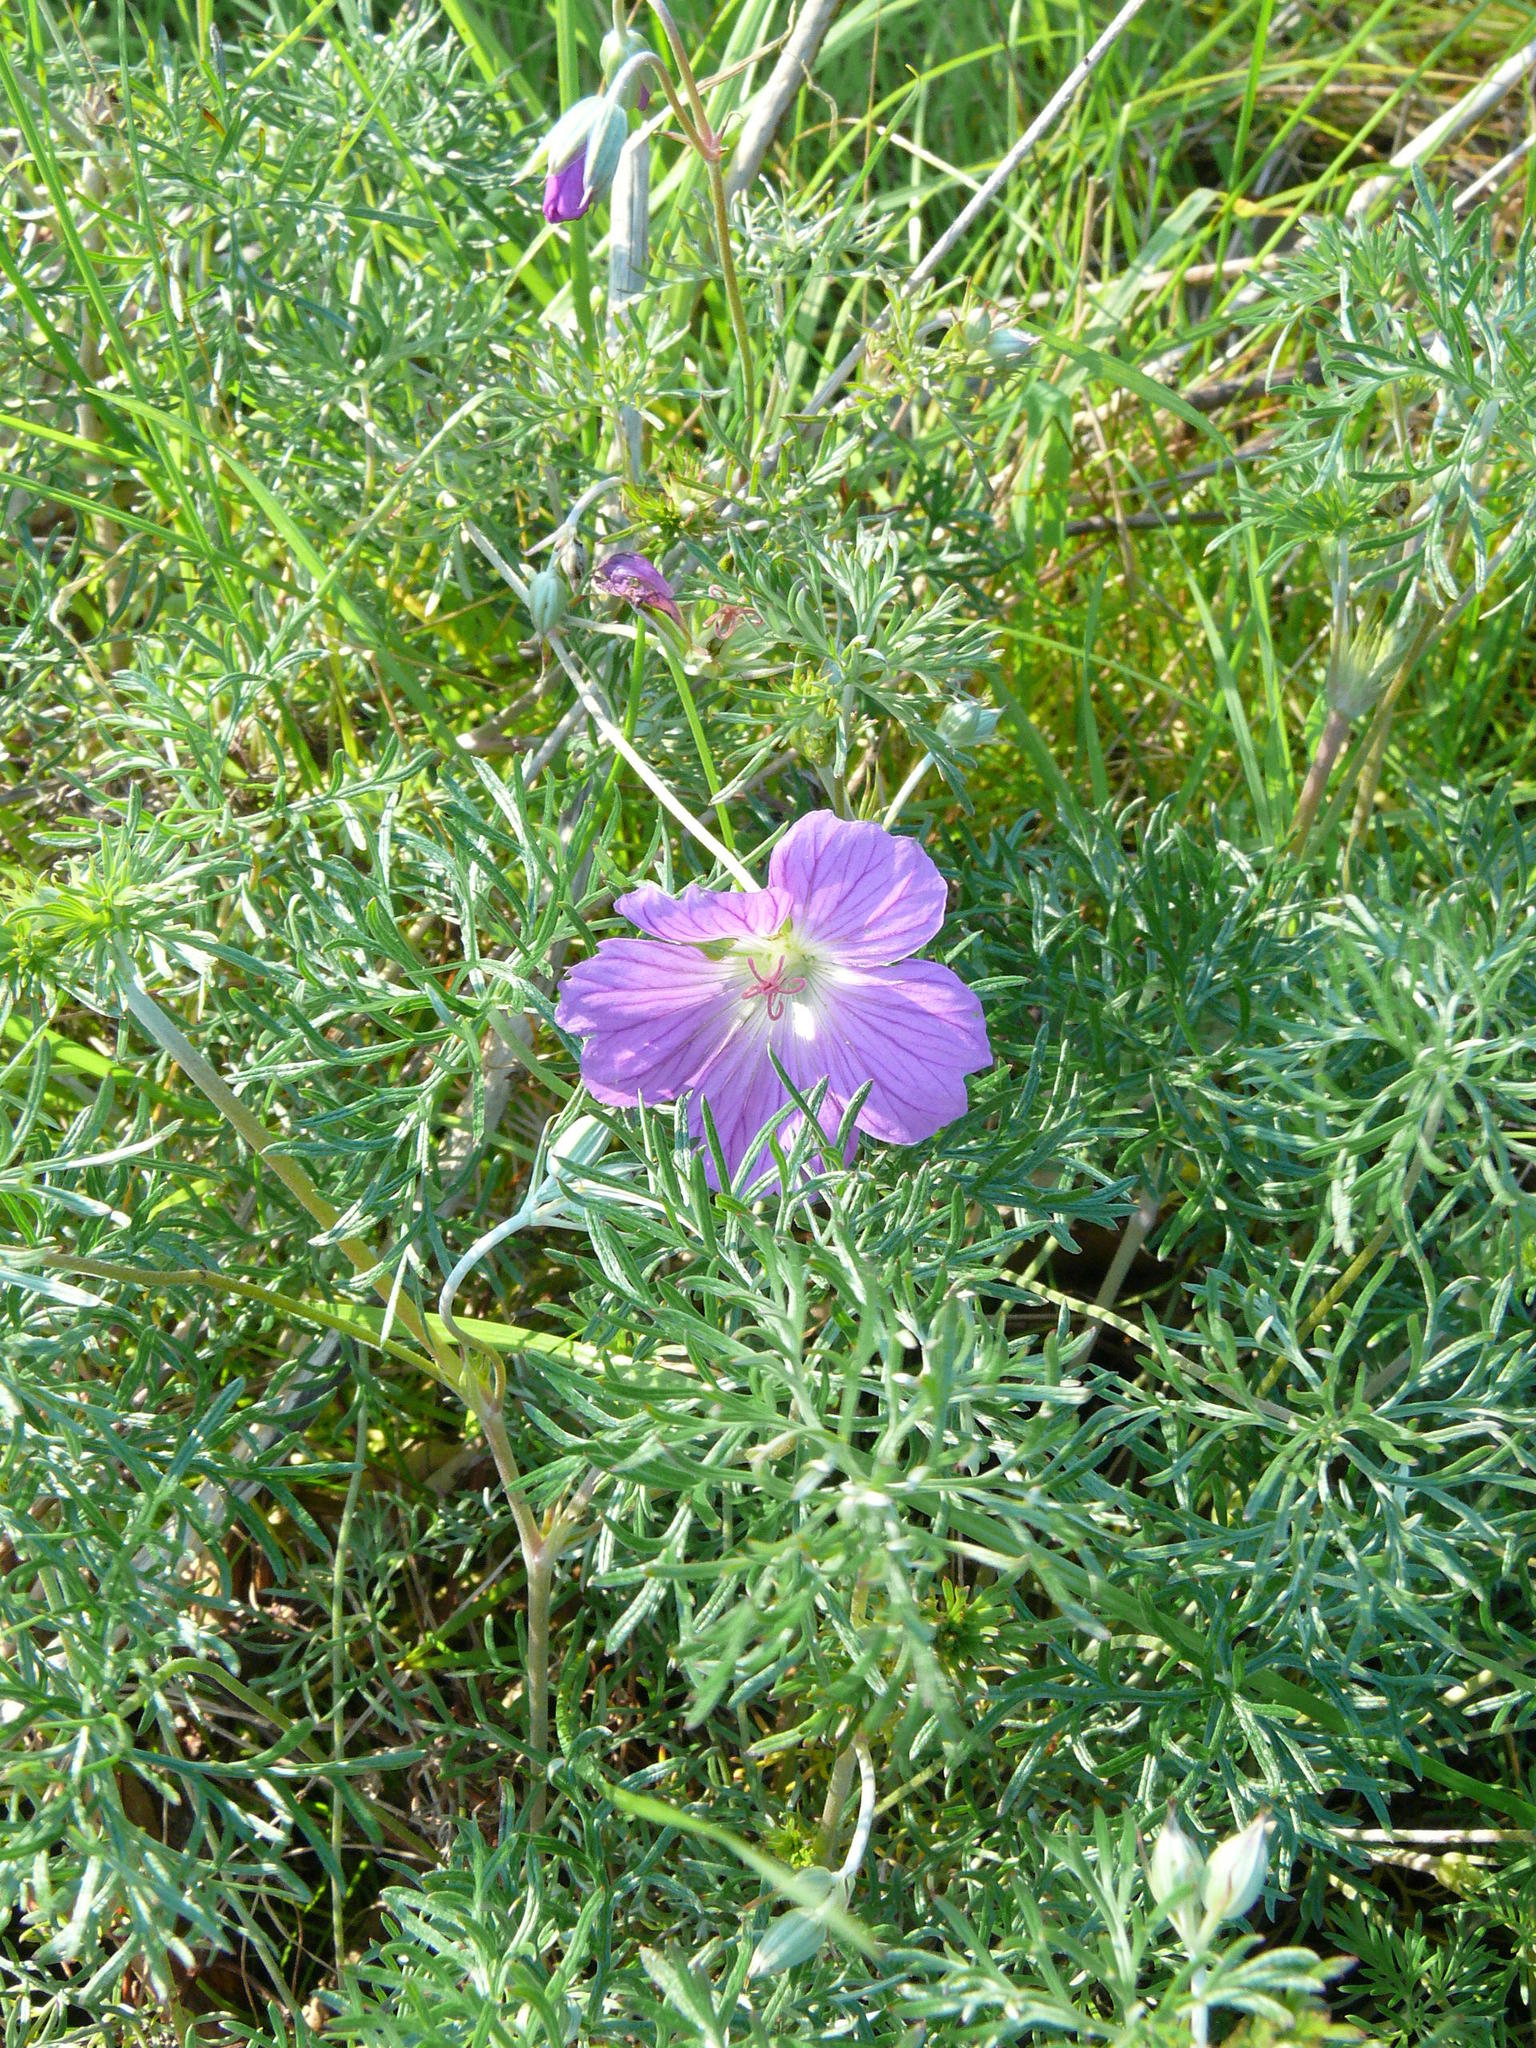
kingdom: Plantae
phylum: Tracheophyta
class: Magnoliopsida
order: Geraniales
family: Geraniaceae
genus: Geranium
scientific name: Geranium incanum
